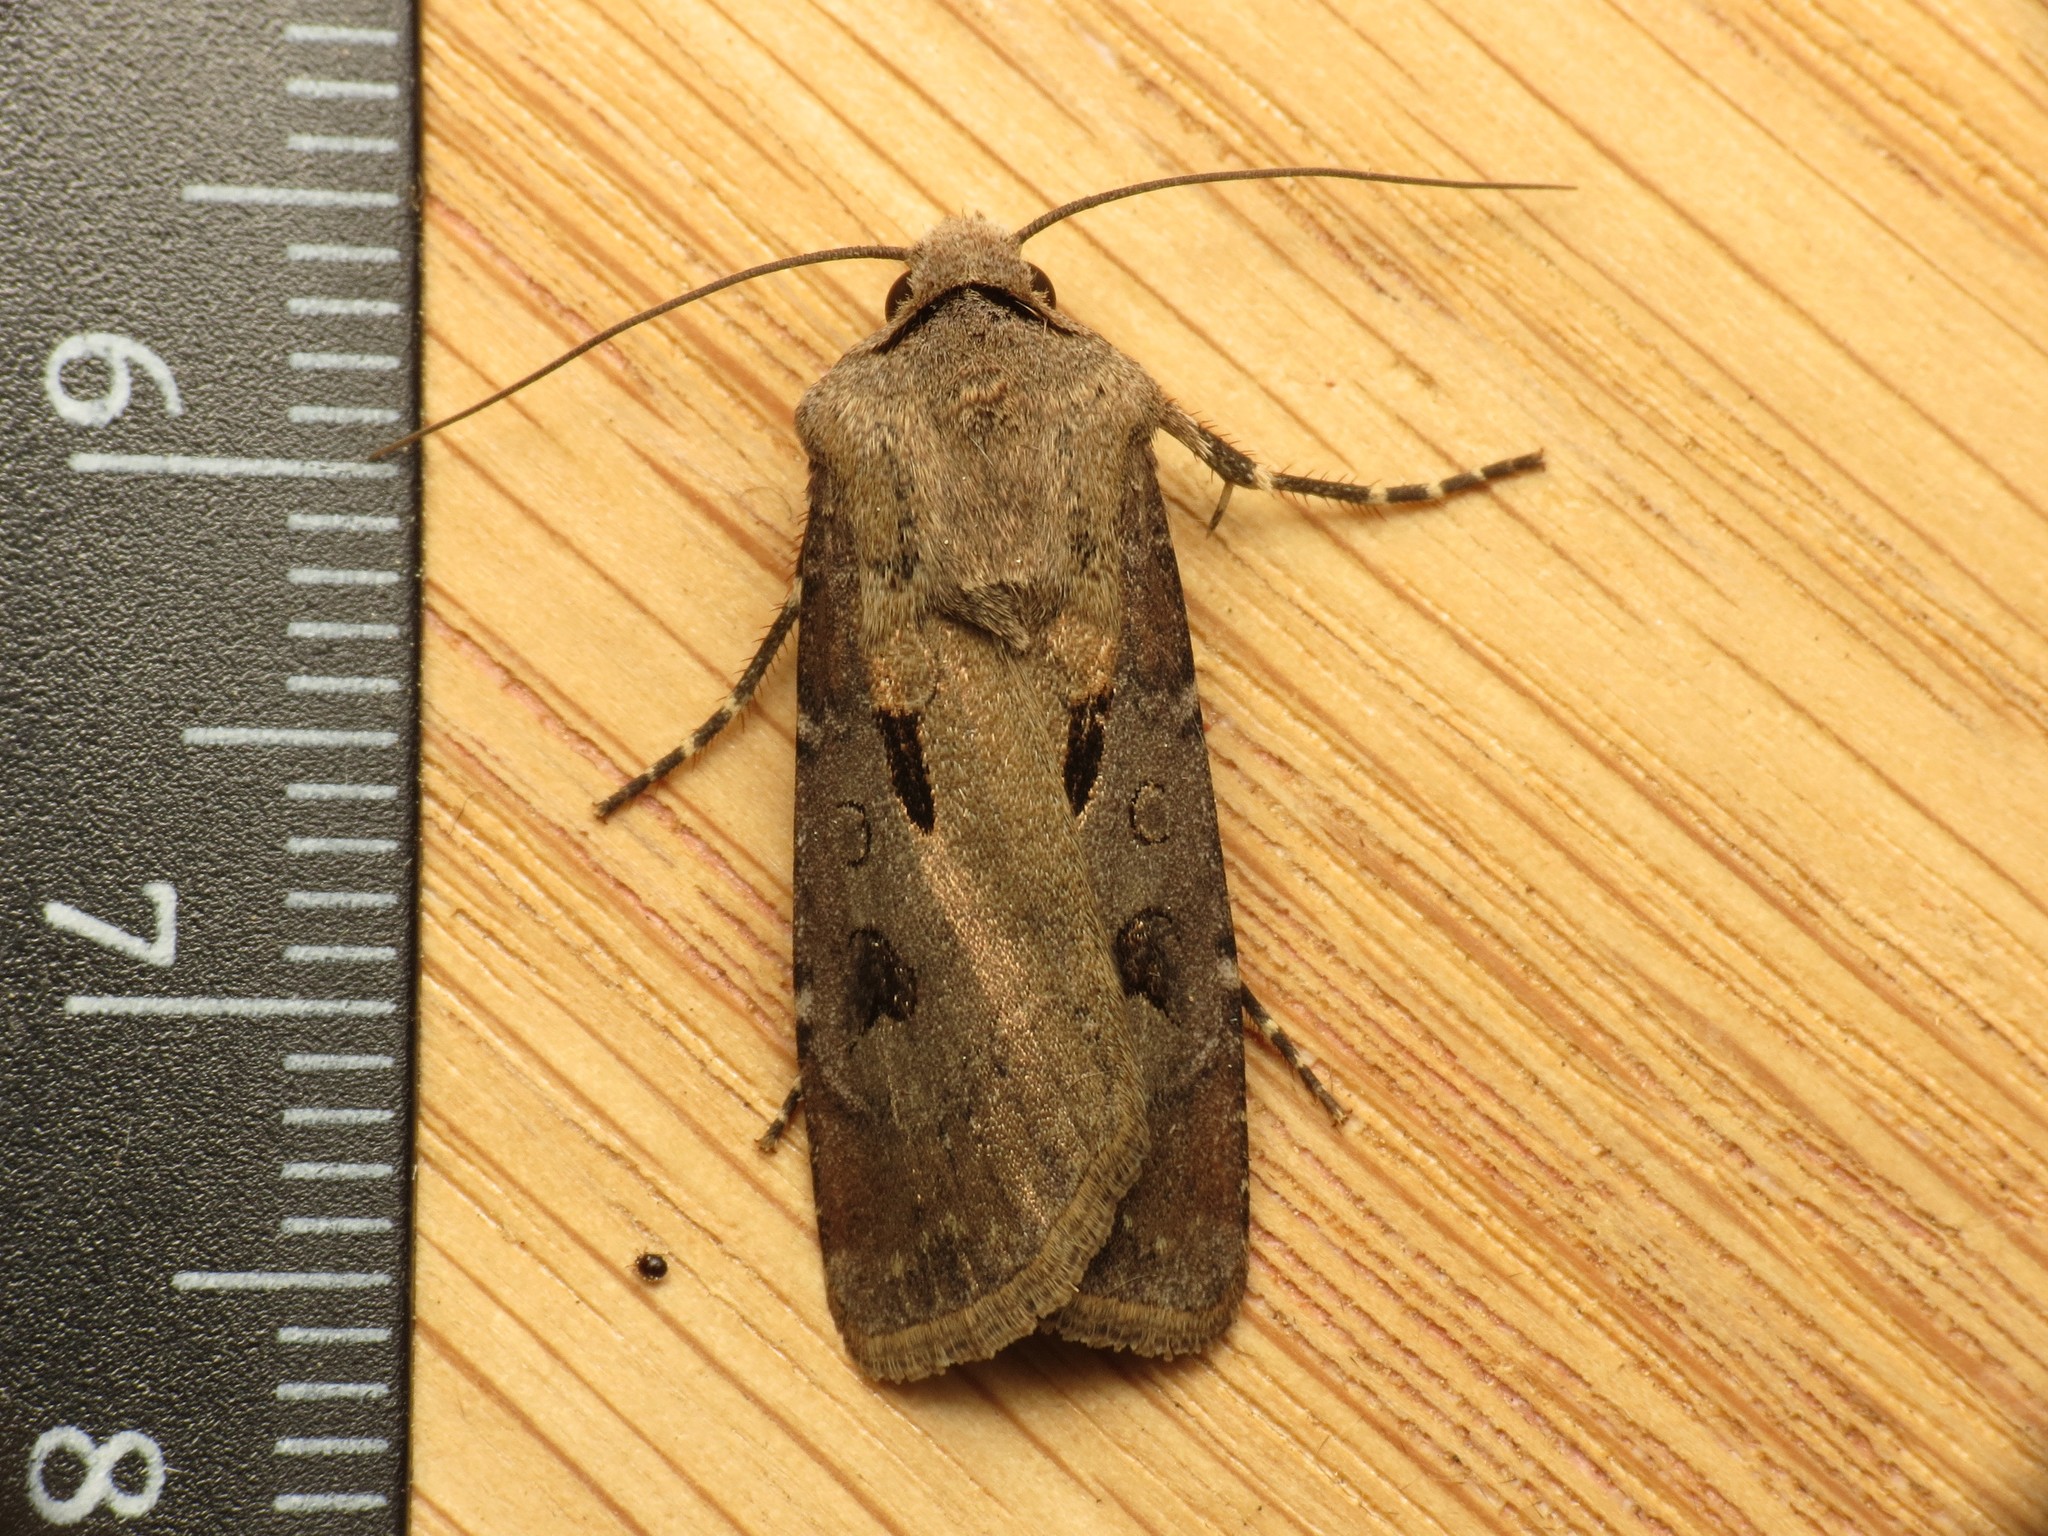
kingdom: Animalia
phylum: Arthropoda
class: Insecta
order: Lepidoptera
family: Noctuidae
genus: Agrotis
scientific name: Agrotis exclamationis
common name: Heart and dart
